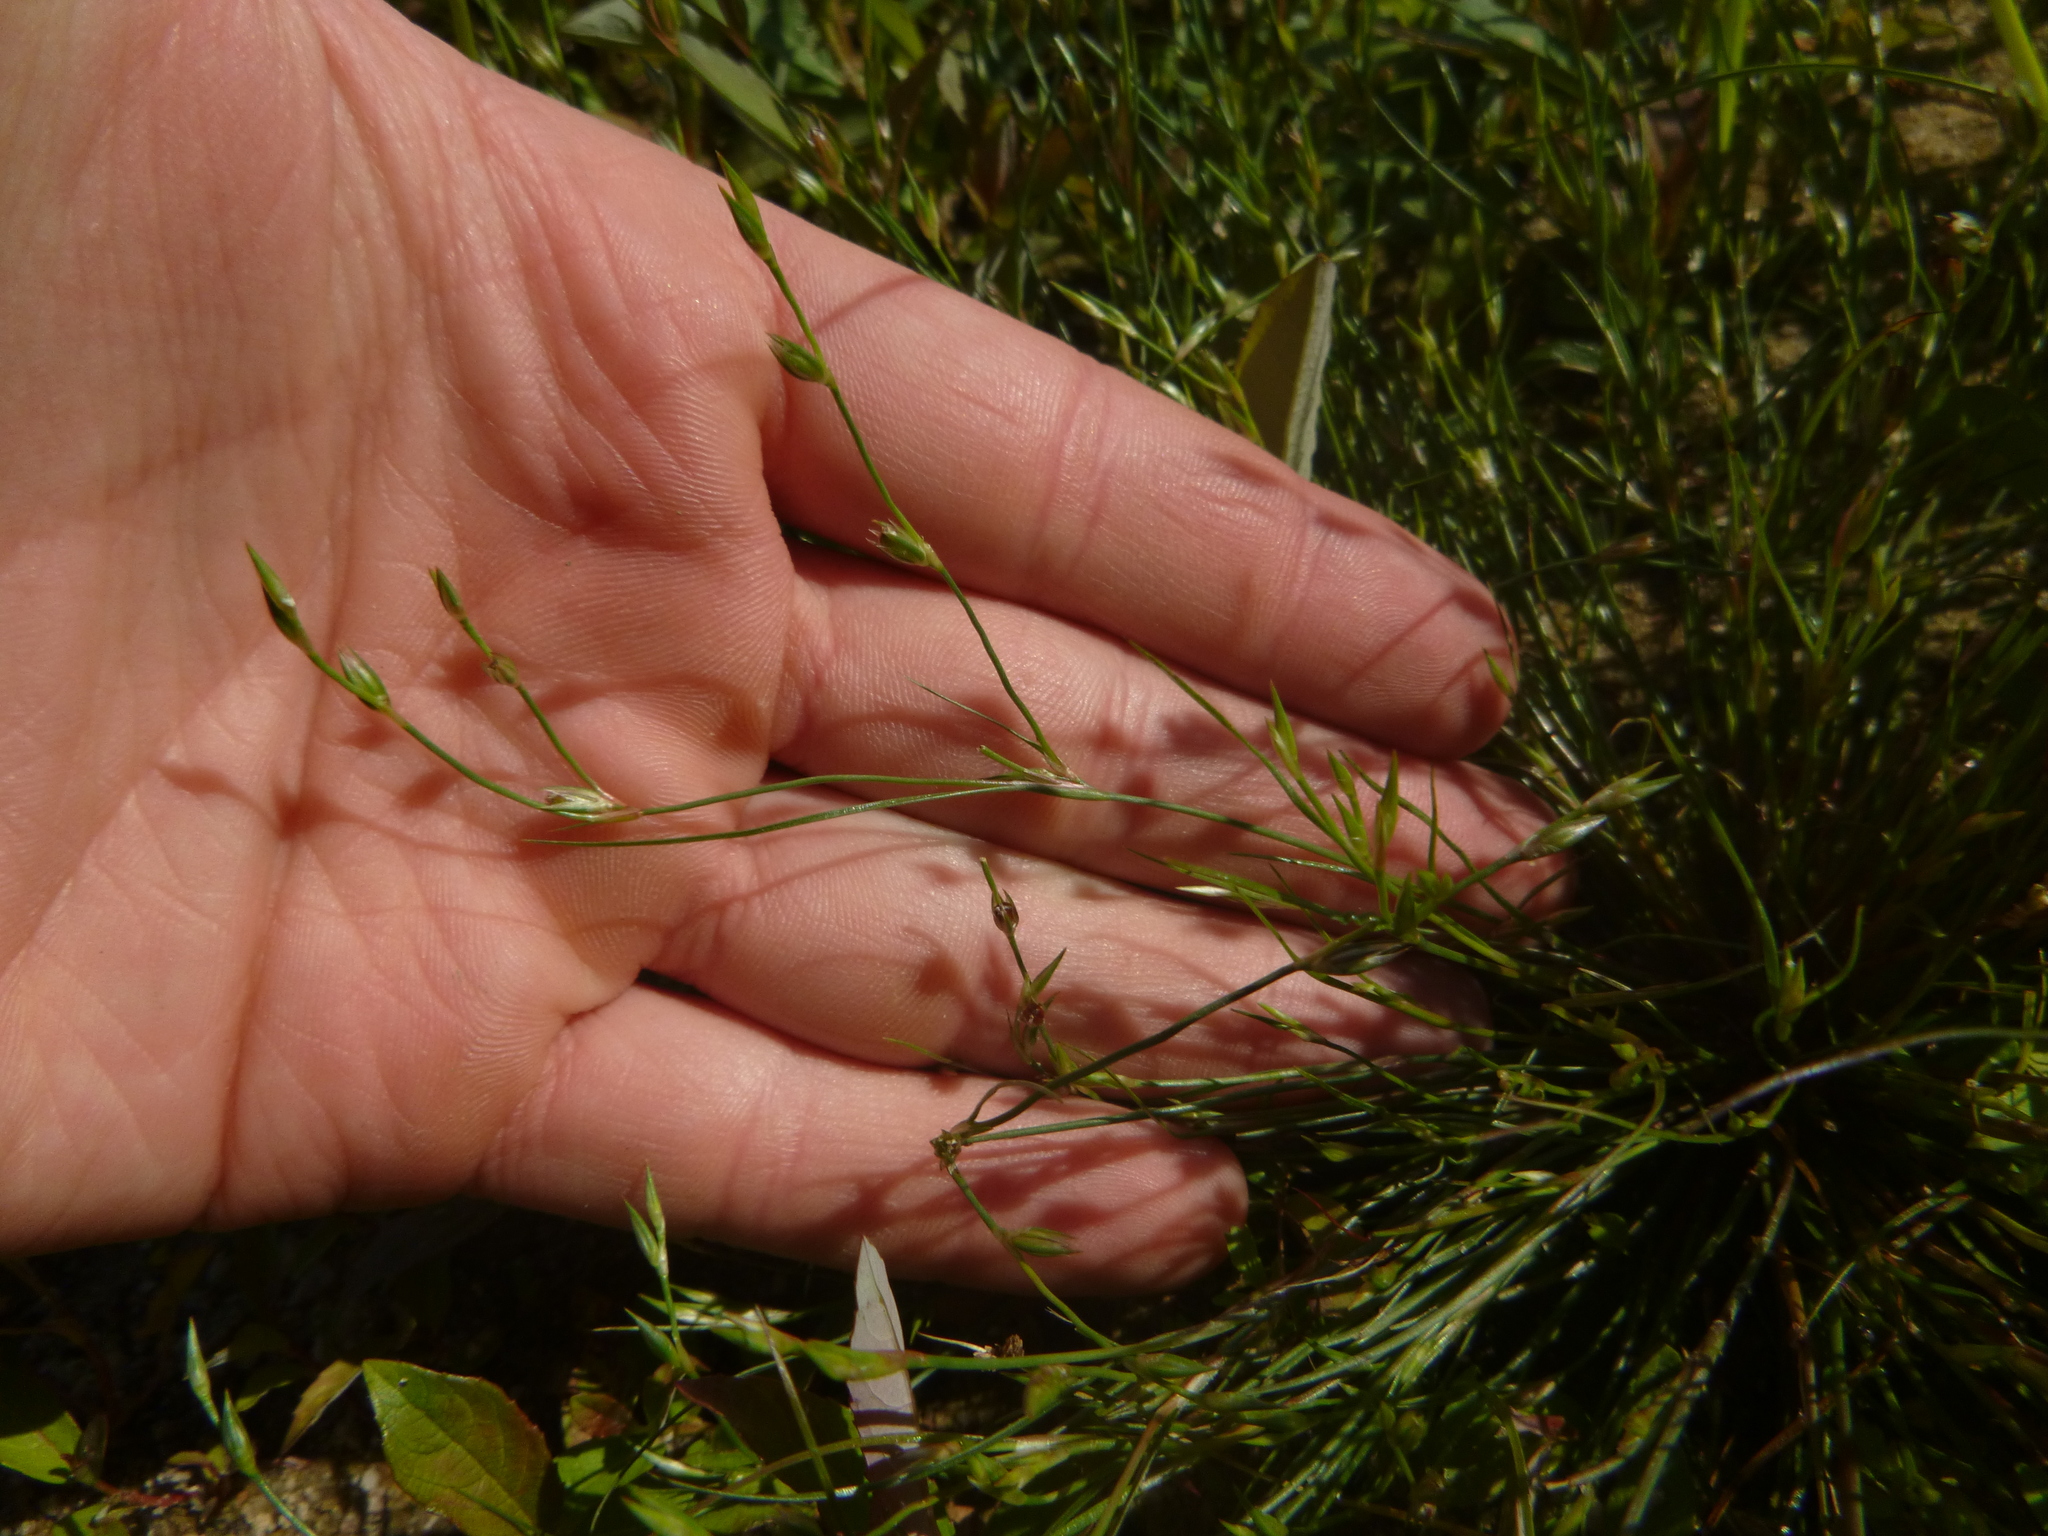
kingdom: Plantae
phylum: Tracheophyta
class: Liliopsida
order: Poales
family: Juncaceae
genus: Juncus
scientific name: Juncus bufonius
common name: Toad rush
